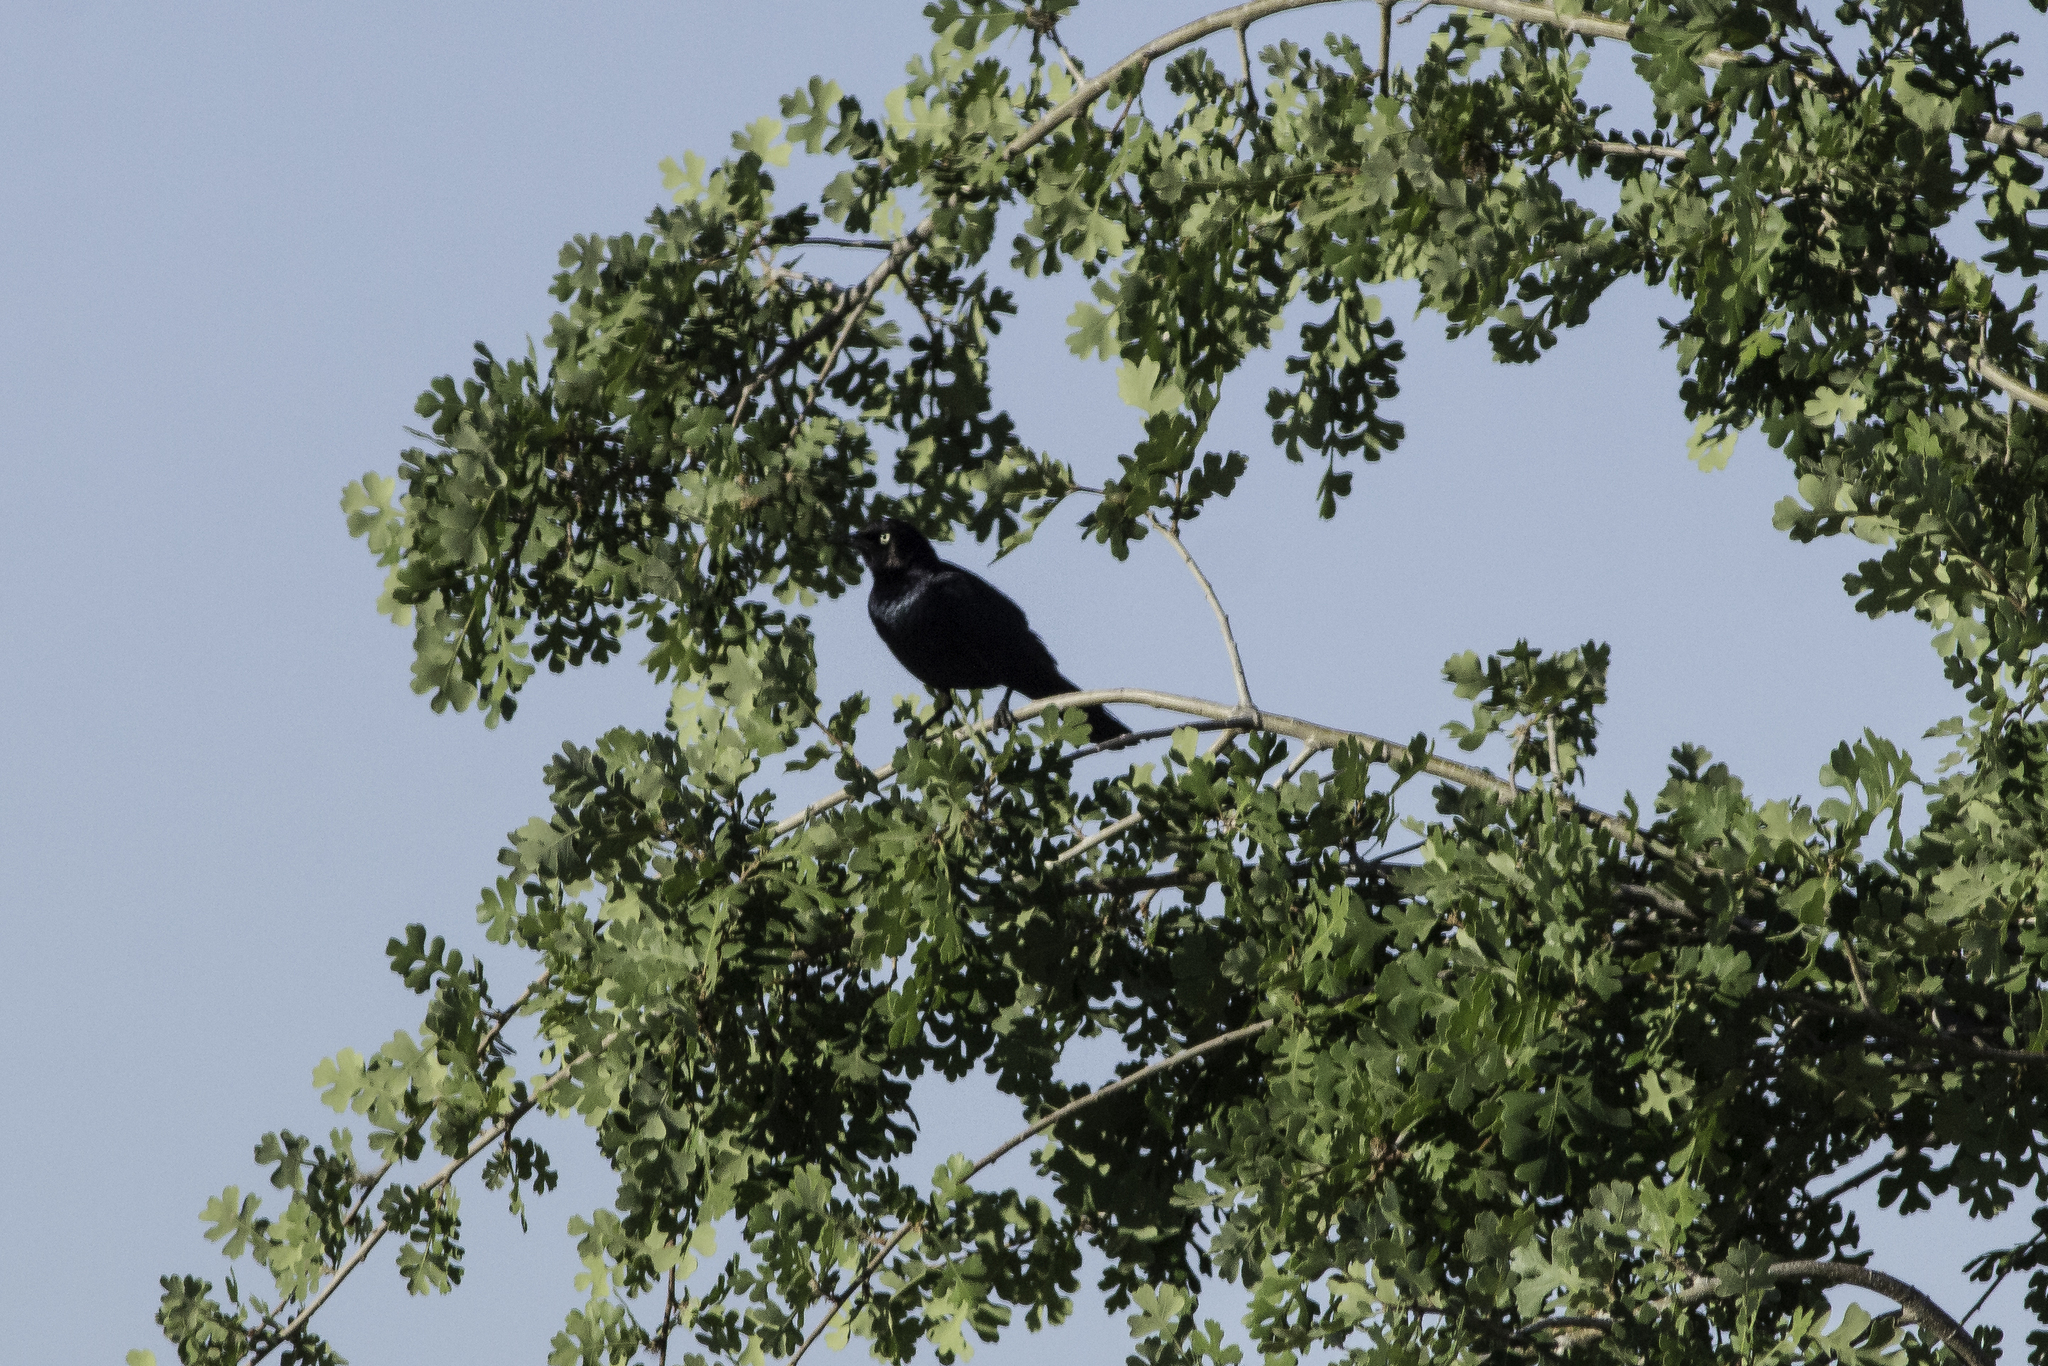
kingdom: Animalia
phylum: Chordata
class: Aves
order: Passeriformes
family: Icteridae
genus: Euphagus
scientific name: Euphagus cyanocephalus
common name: Brewer's blackbird
